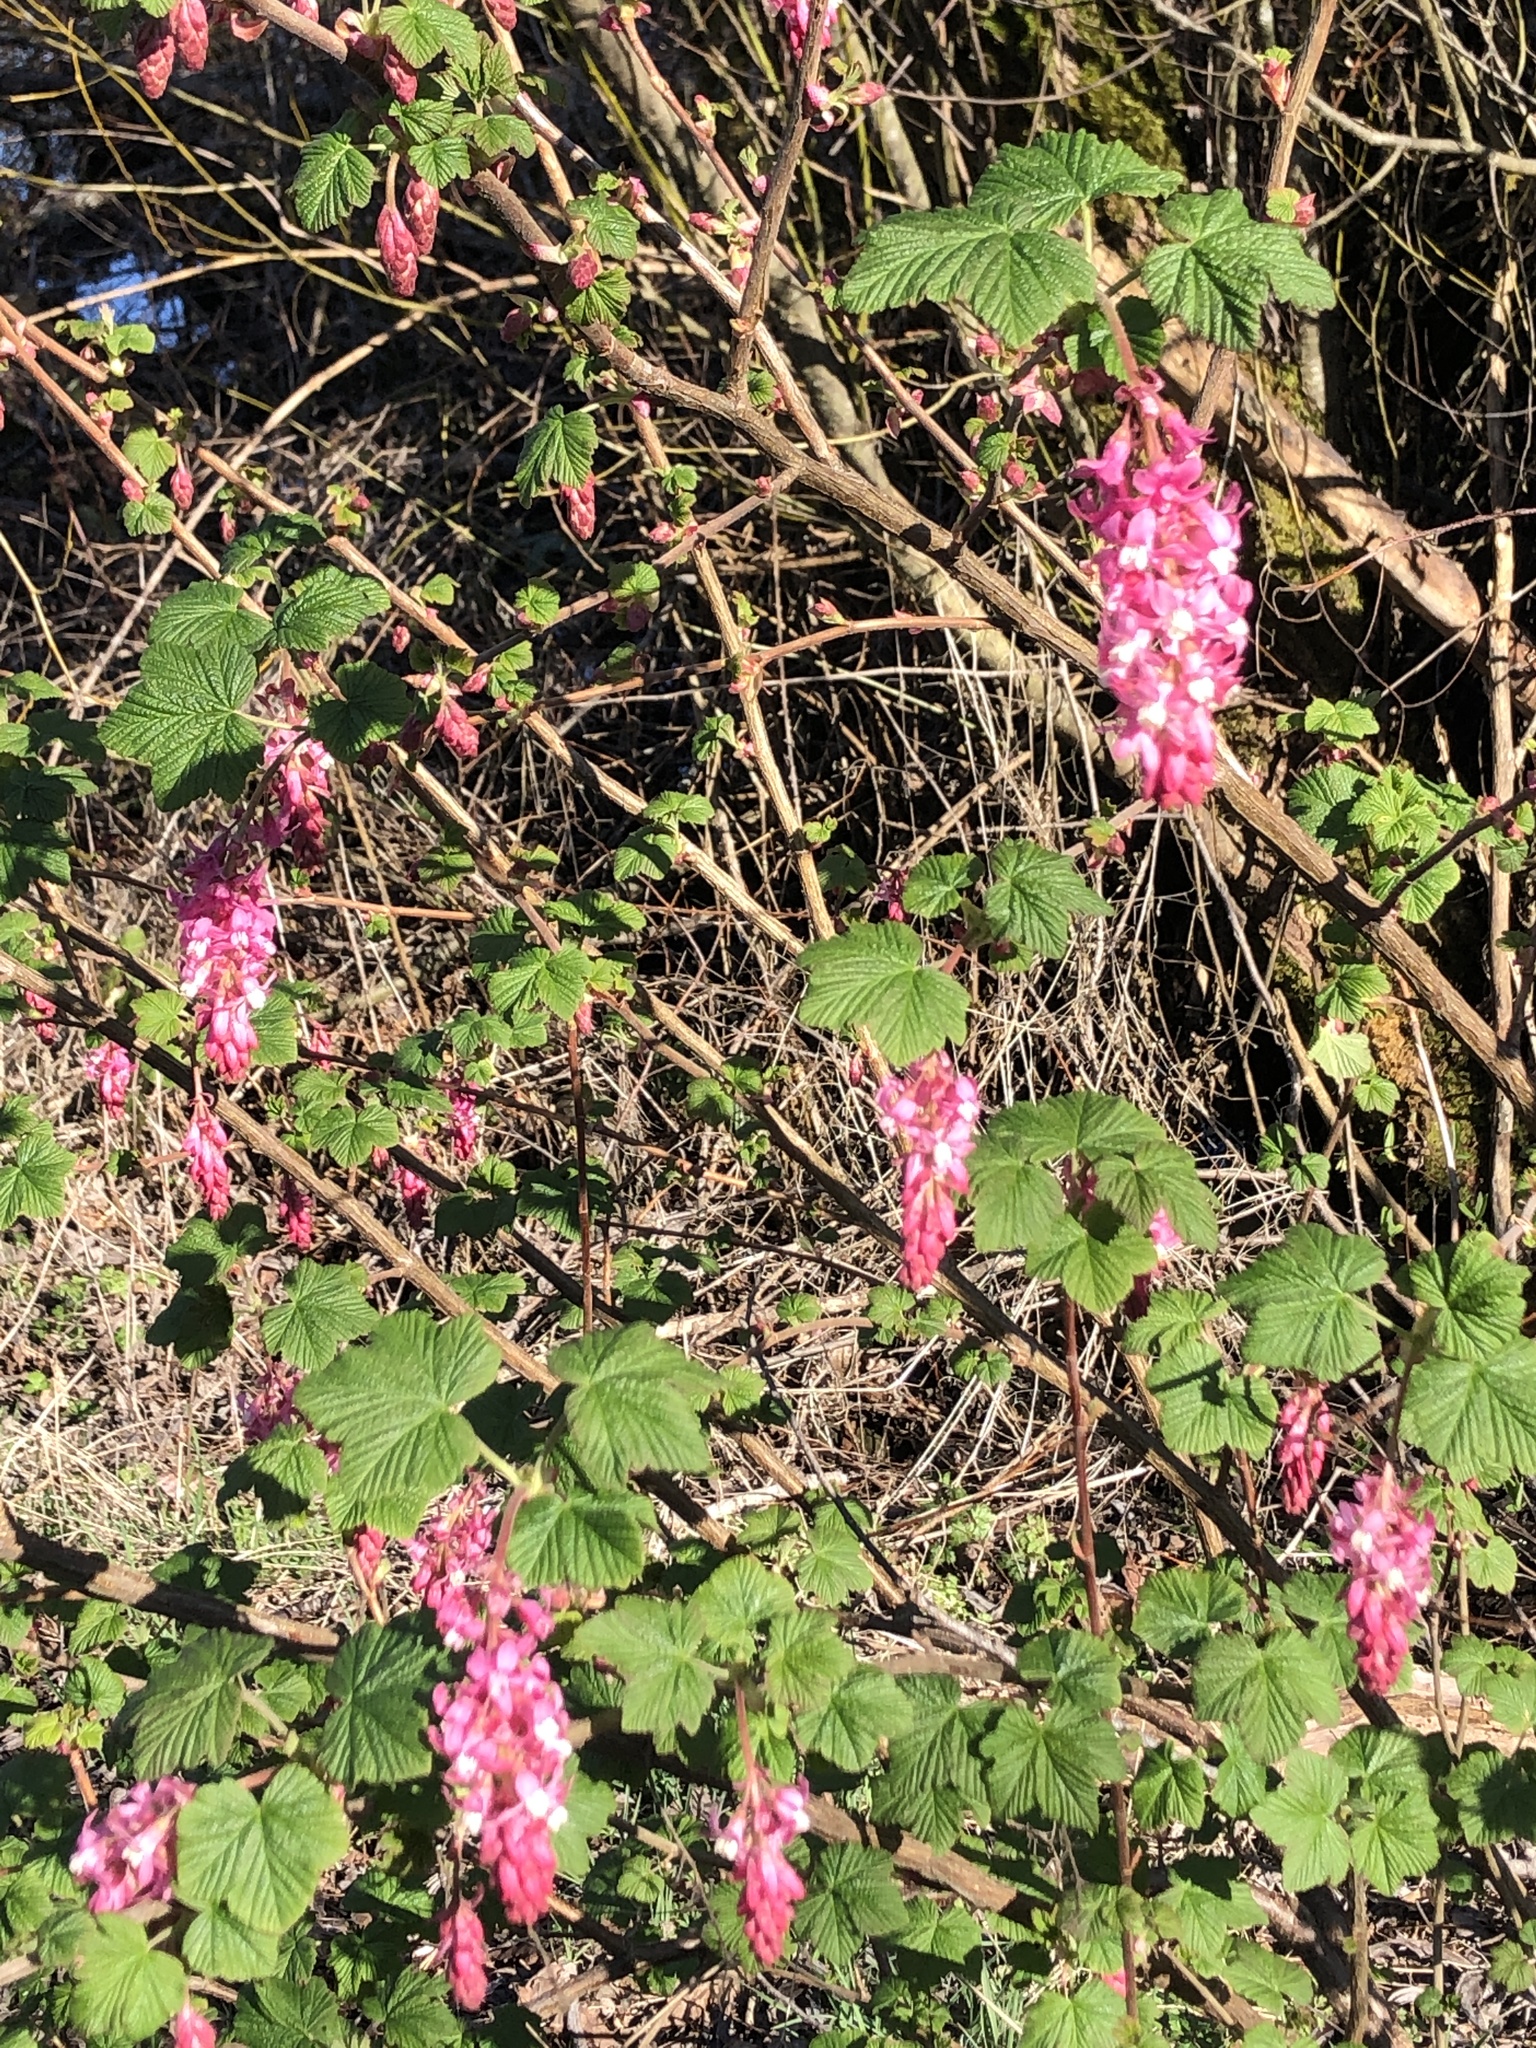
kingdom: Plantae
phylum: Tracheophyta
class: Magnoliopsida
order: Saxifragales
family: Grossulariaceae
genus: Ribes
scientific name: Ribes sanguineum
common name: Flowering currant
